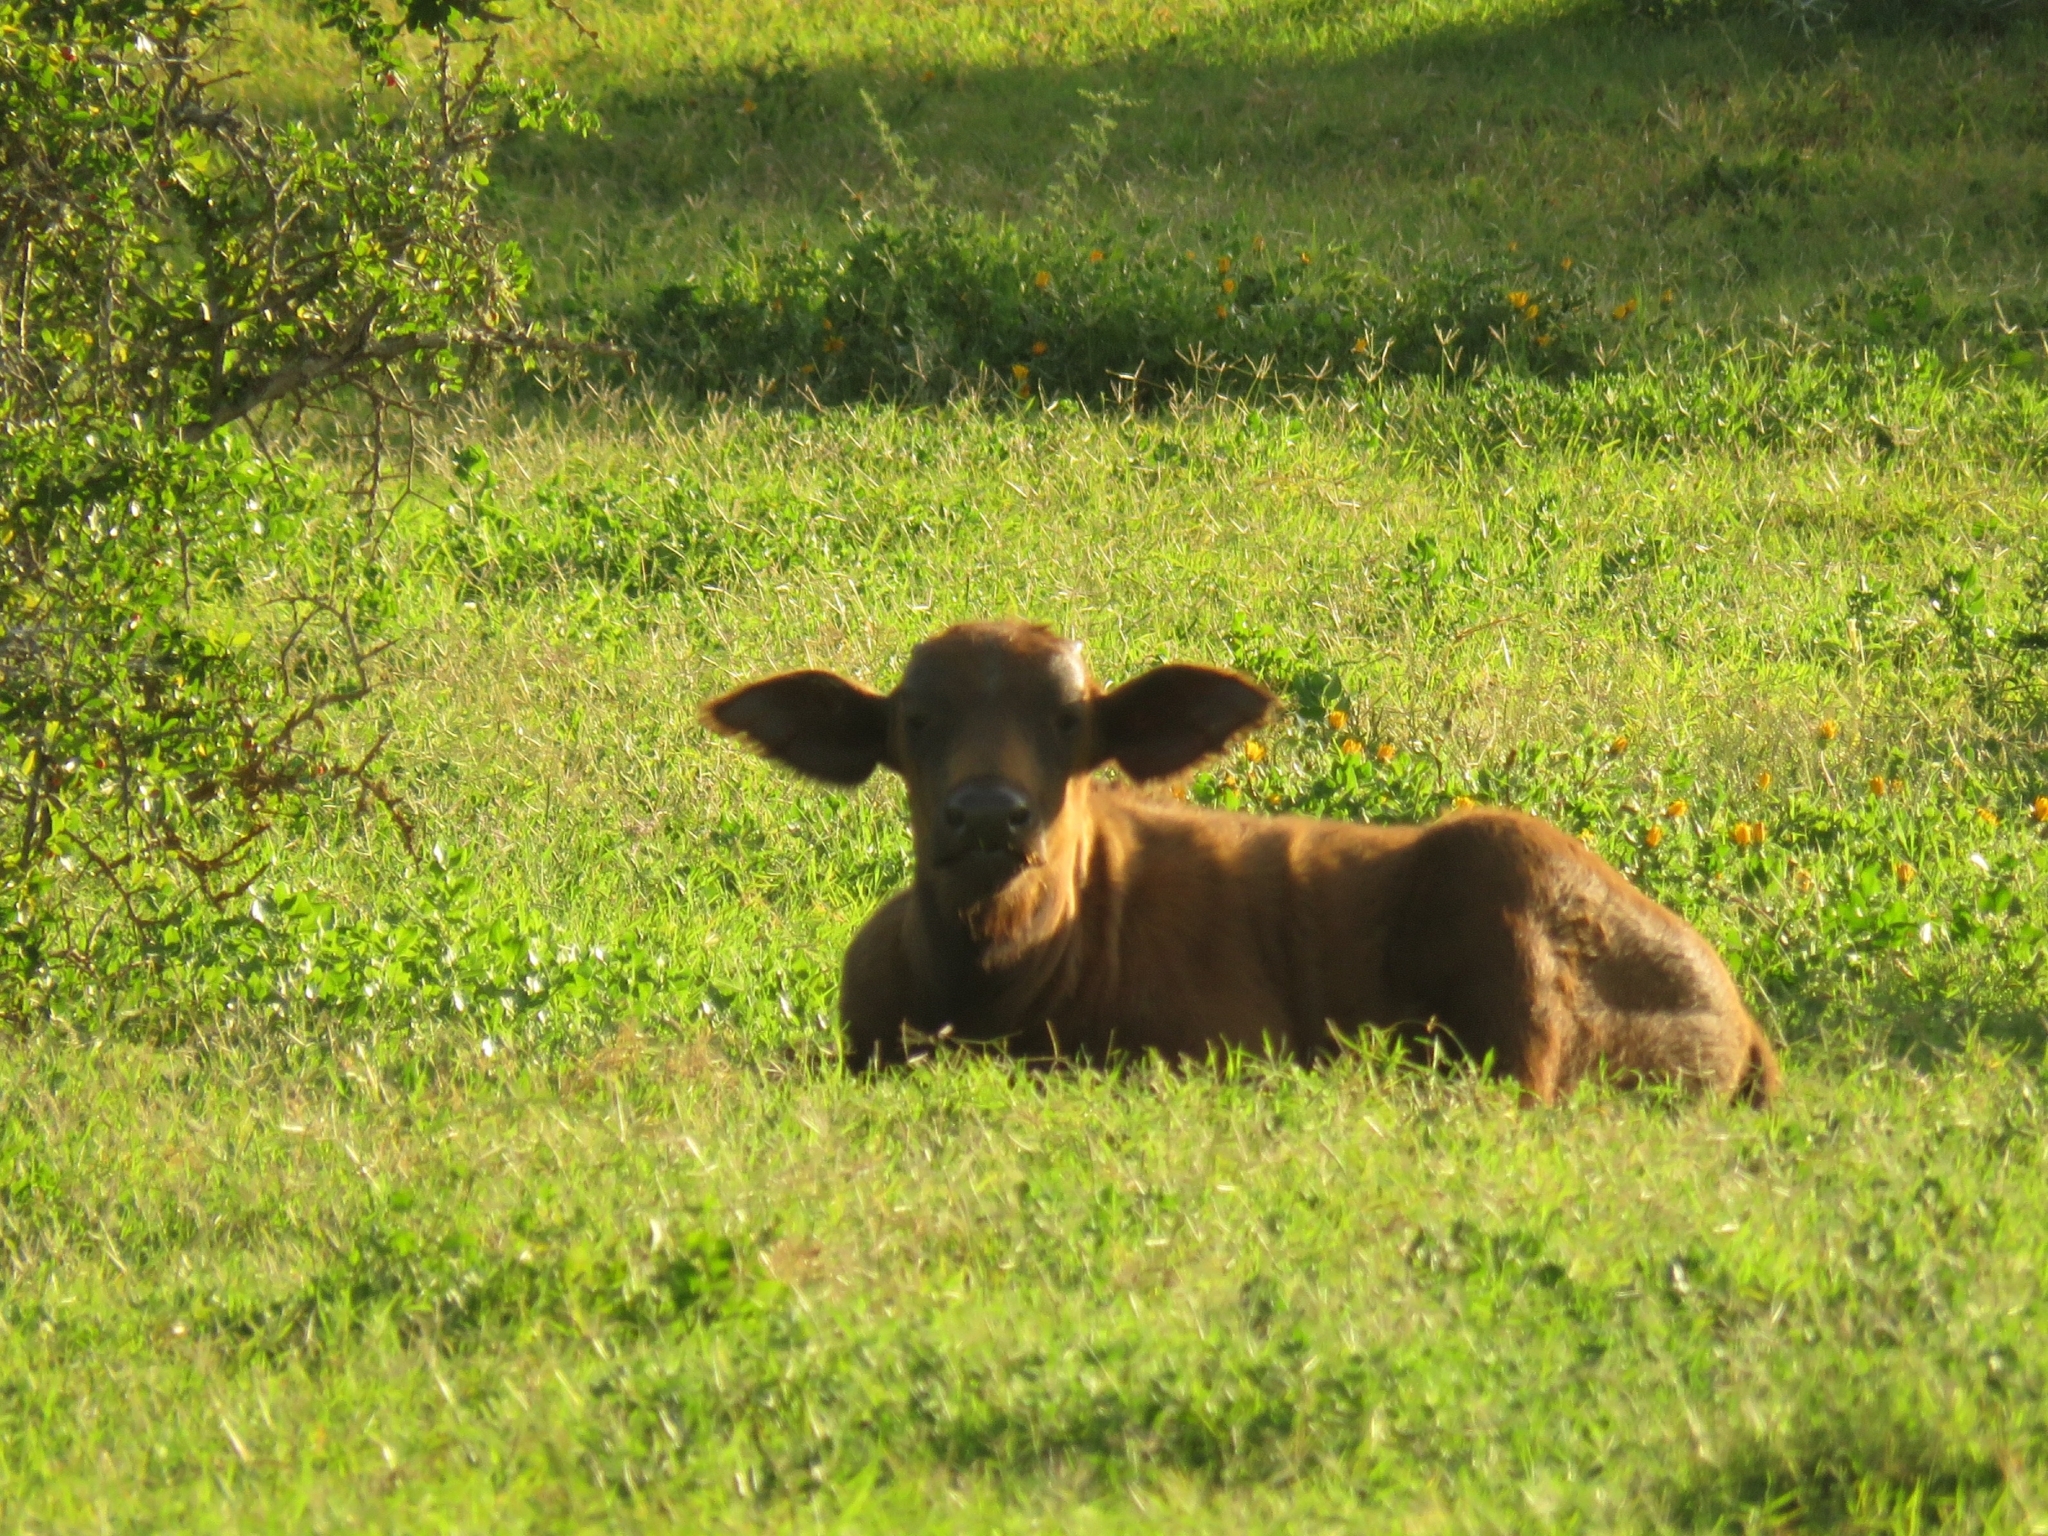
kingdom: Animalia
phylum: Chordata
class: Mammalia
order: Artiodactyla
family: Bovidae
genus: Syncerus
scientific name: Syncerus caffer
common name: African buffalo
